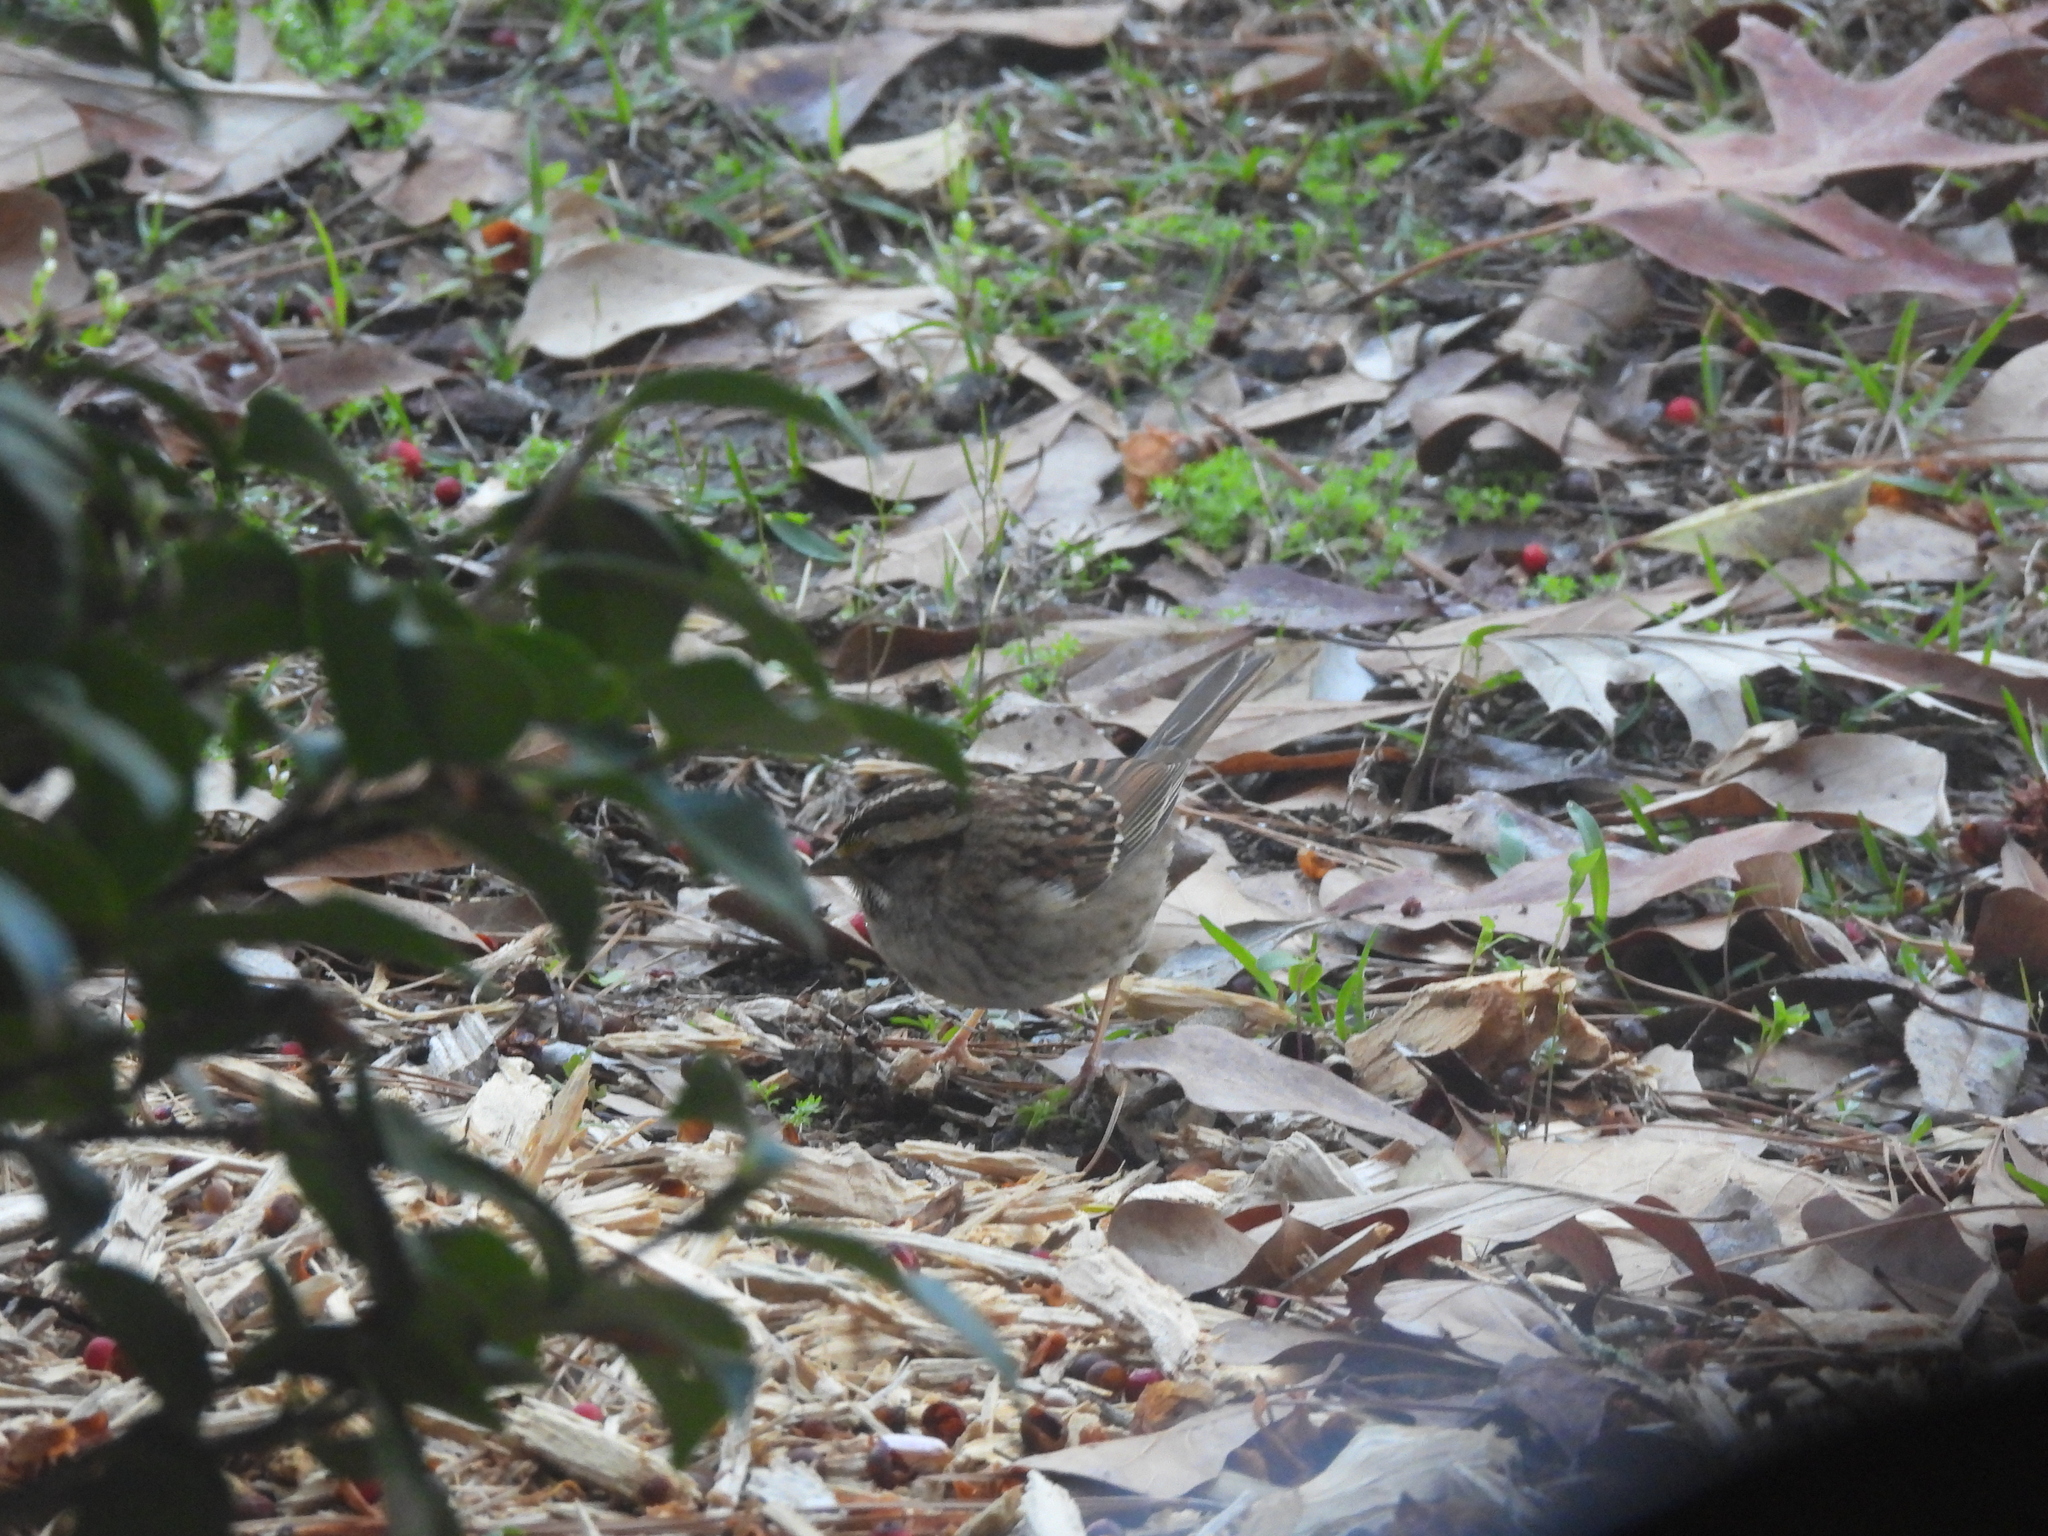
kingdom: Animalia
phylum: Chordata
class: Aves
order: Passeriformes
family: Passerellidae
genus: Zonotrichia
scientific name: Zonotrichia albicollis
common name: White-throated sparrow
